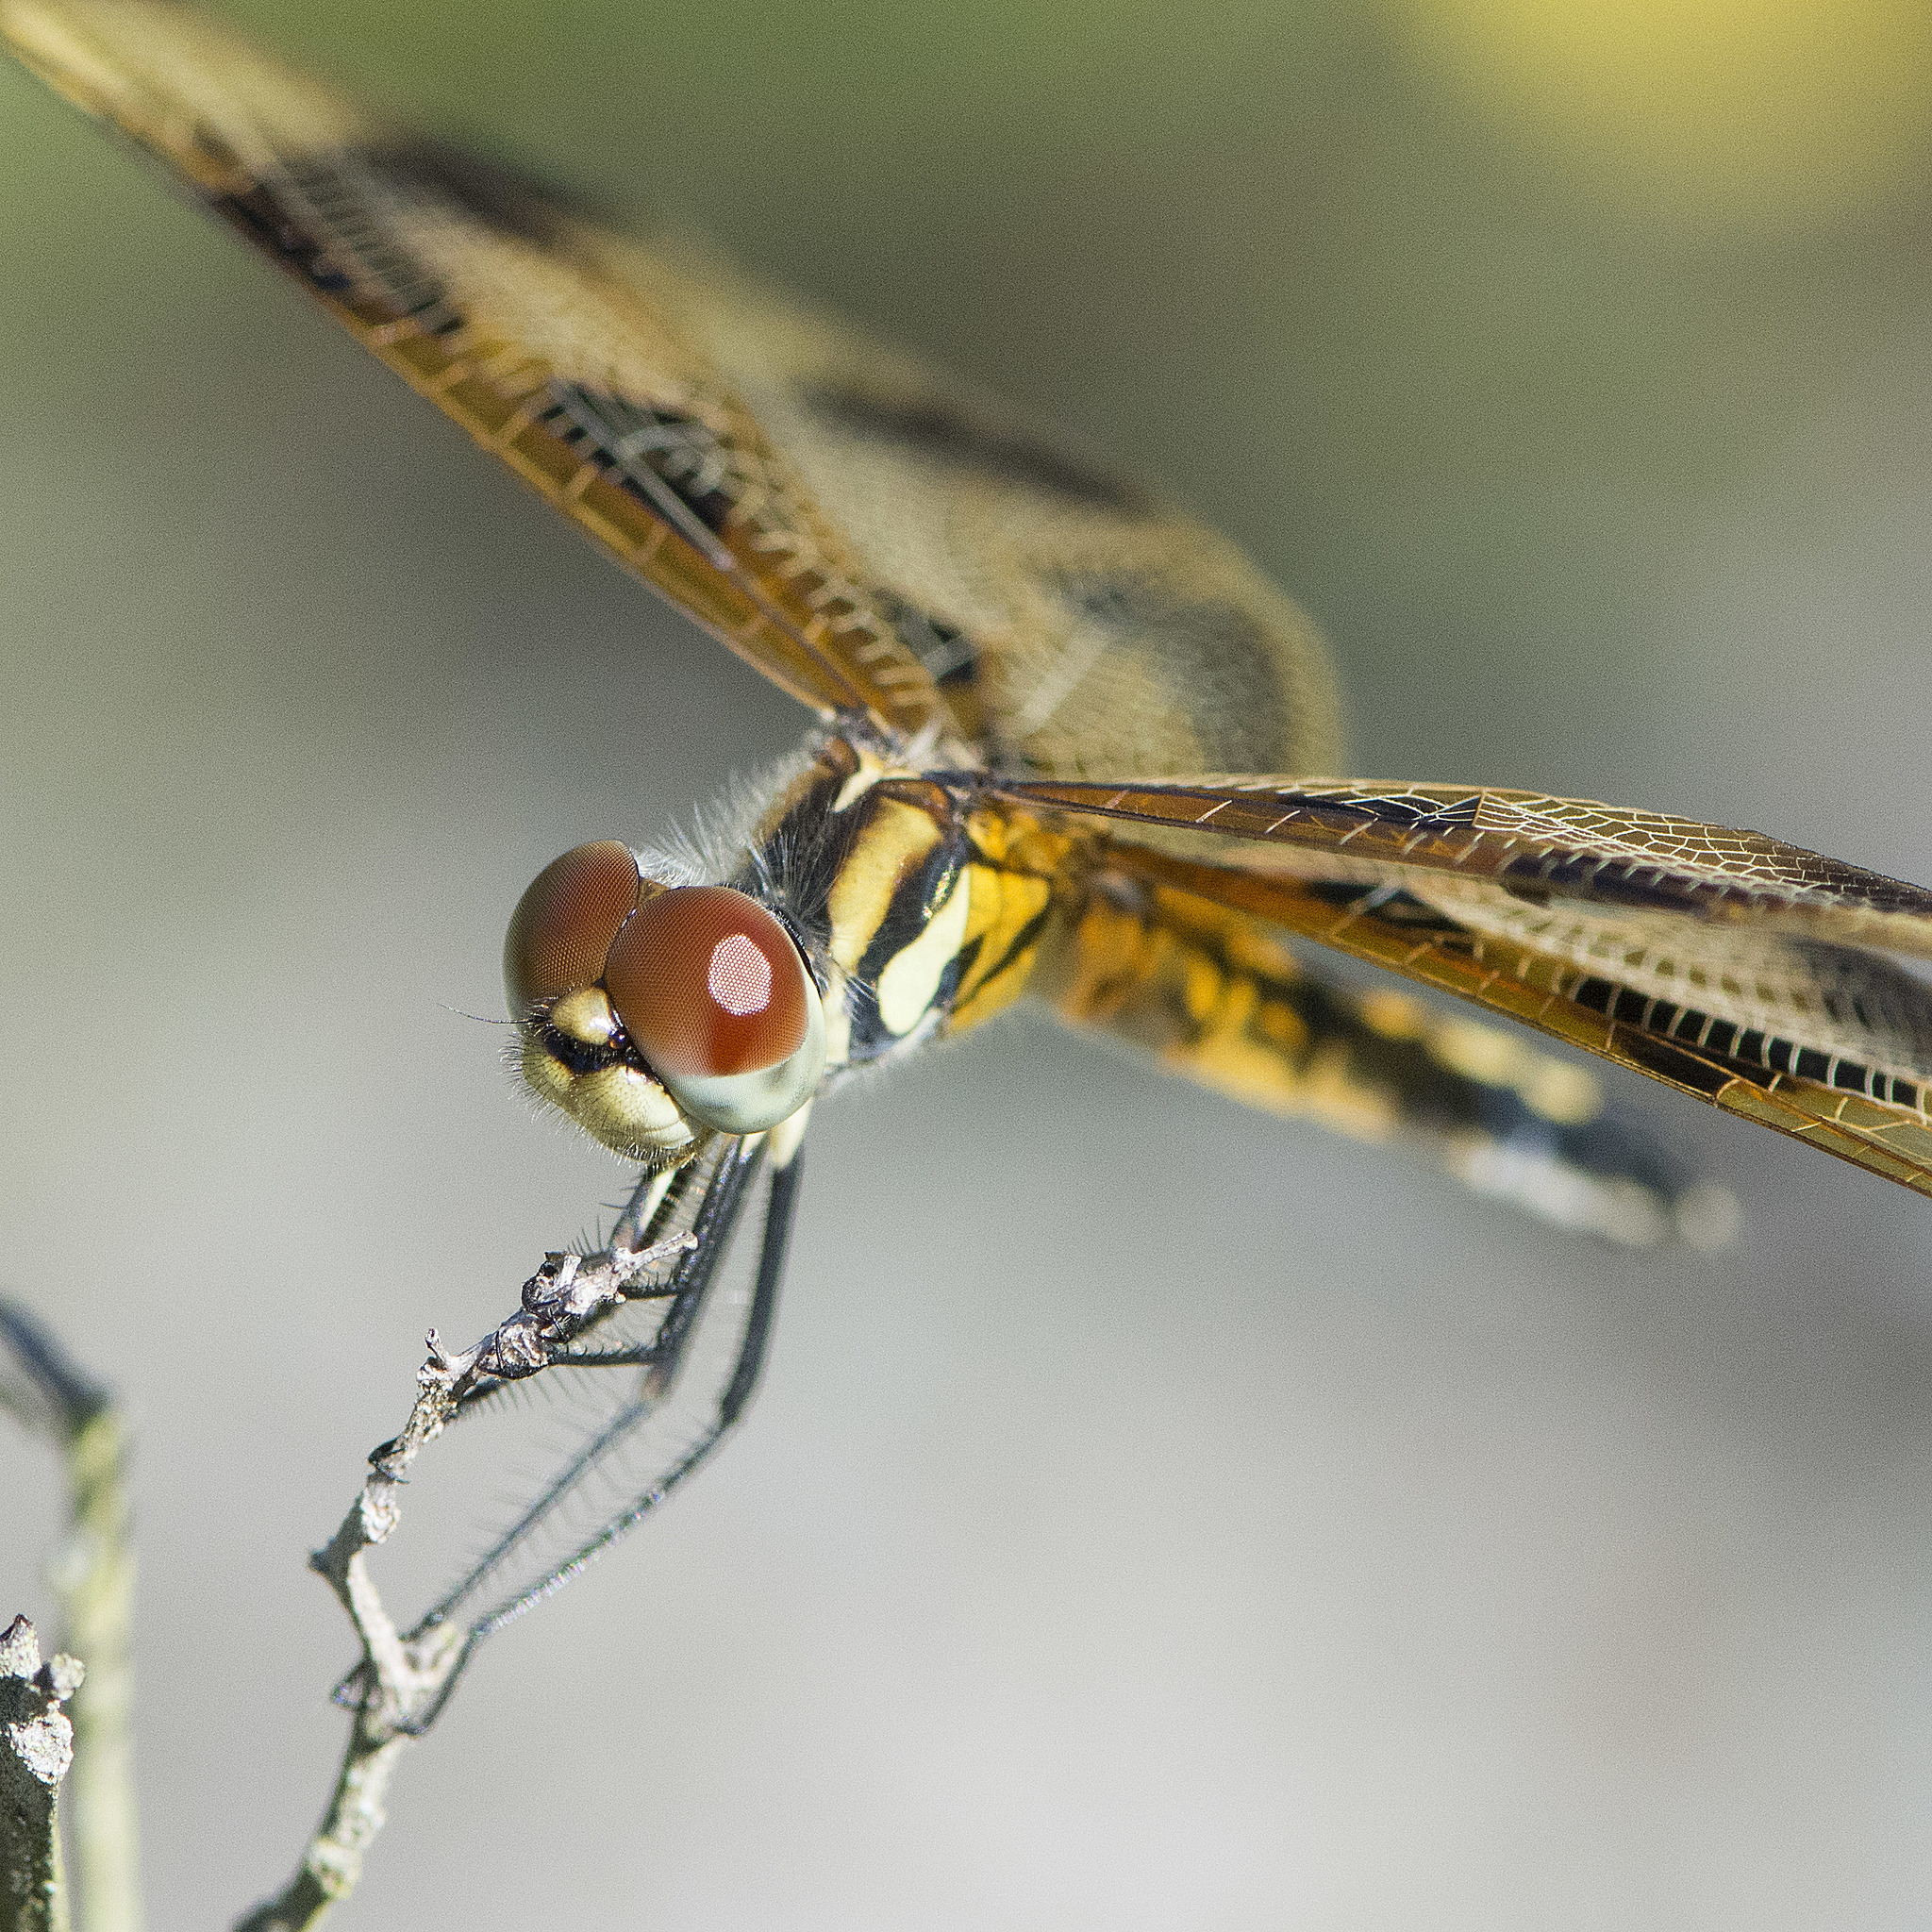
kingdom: Animalia
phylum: Arthropoda
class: Insecta
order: Odonata
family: Libellulidae
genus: Celithemis
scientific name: Celithemis eponina
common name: Halloween pennant
